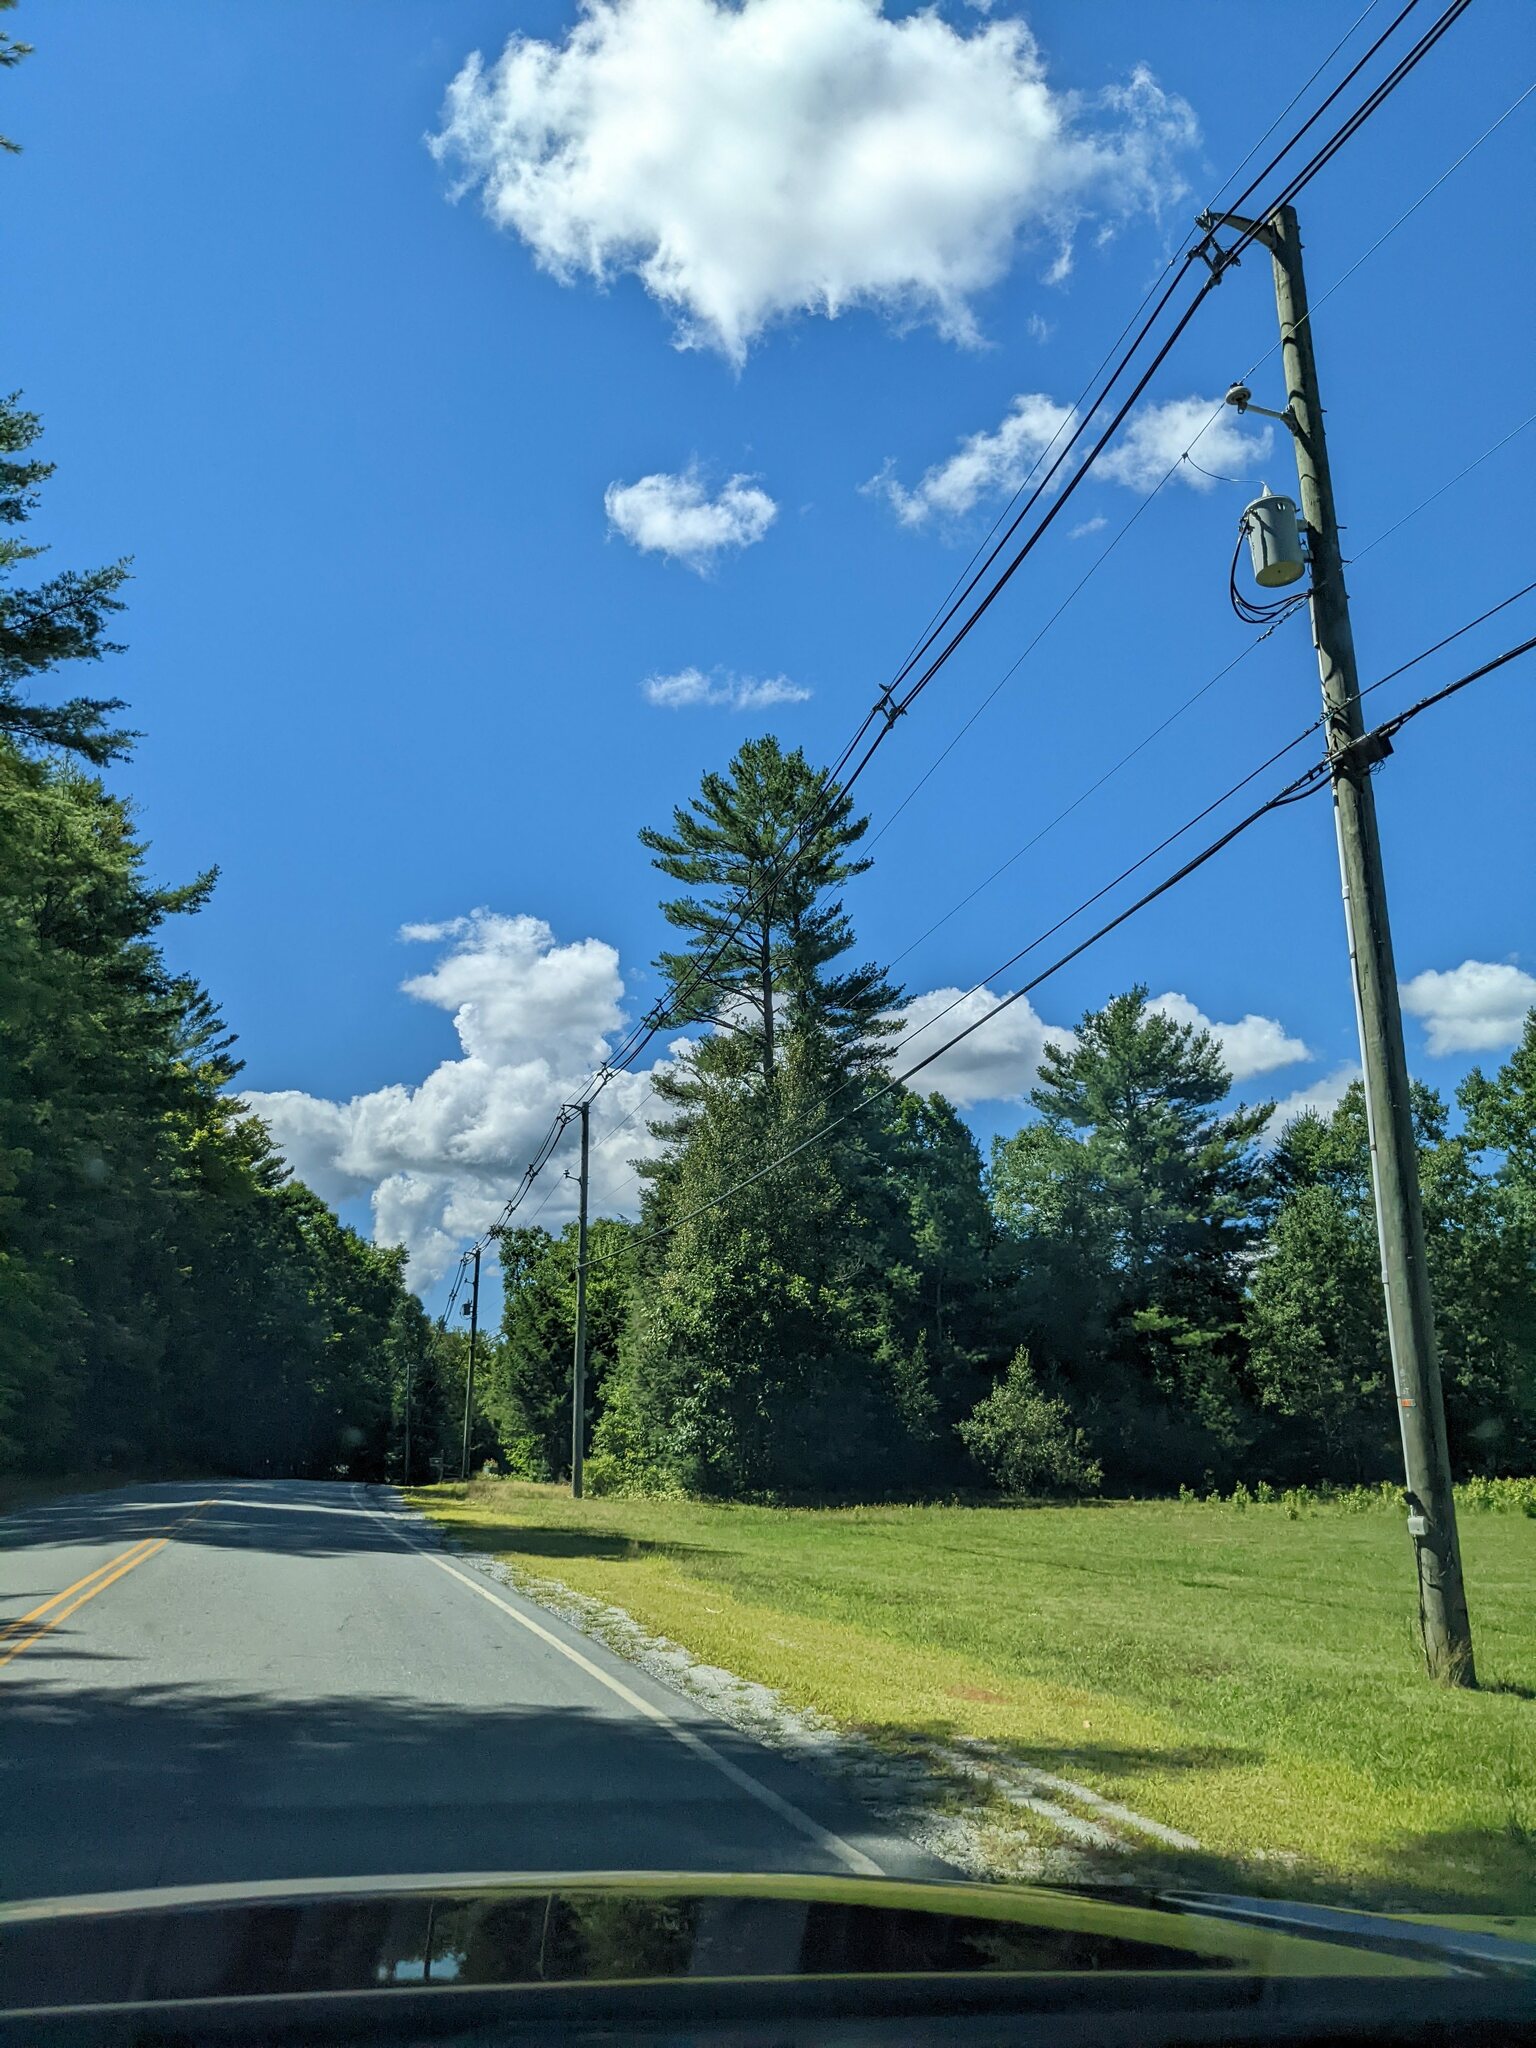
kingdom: Plantae
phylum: Tracheophyta
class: Pinopsida
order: Pinales
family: Pinaceae
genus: Pinus
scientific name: Pinus strobus
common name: Weymouth pine
